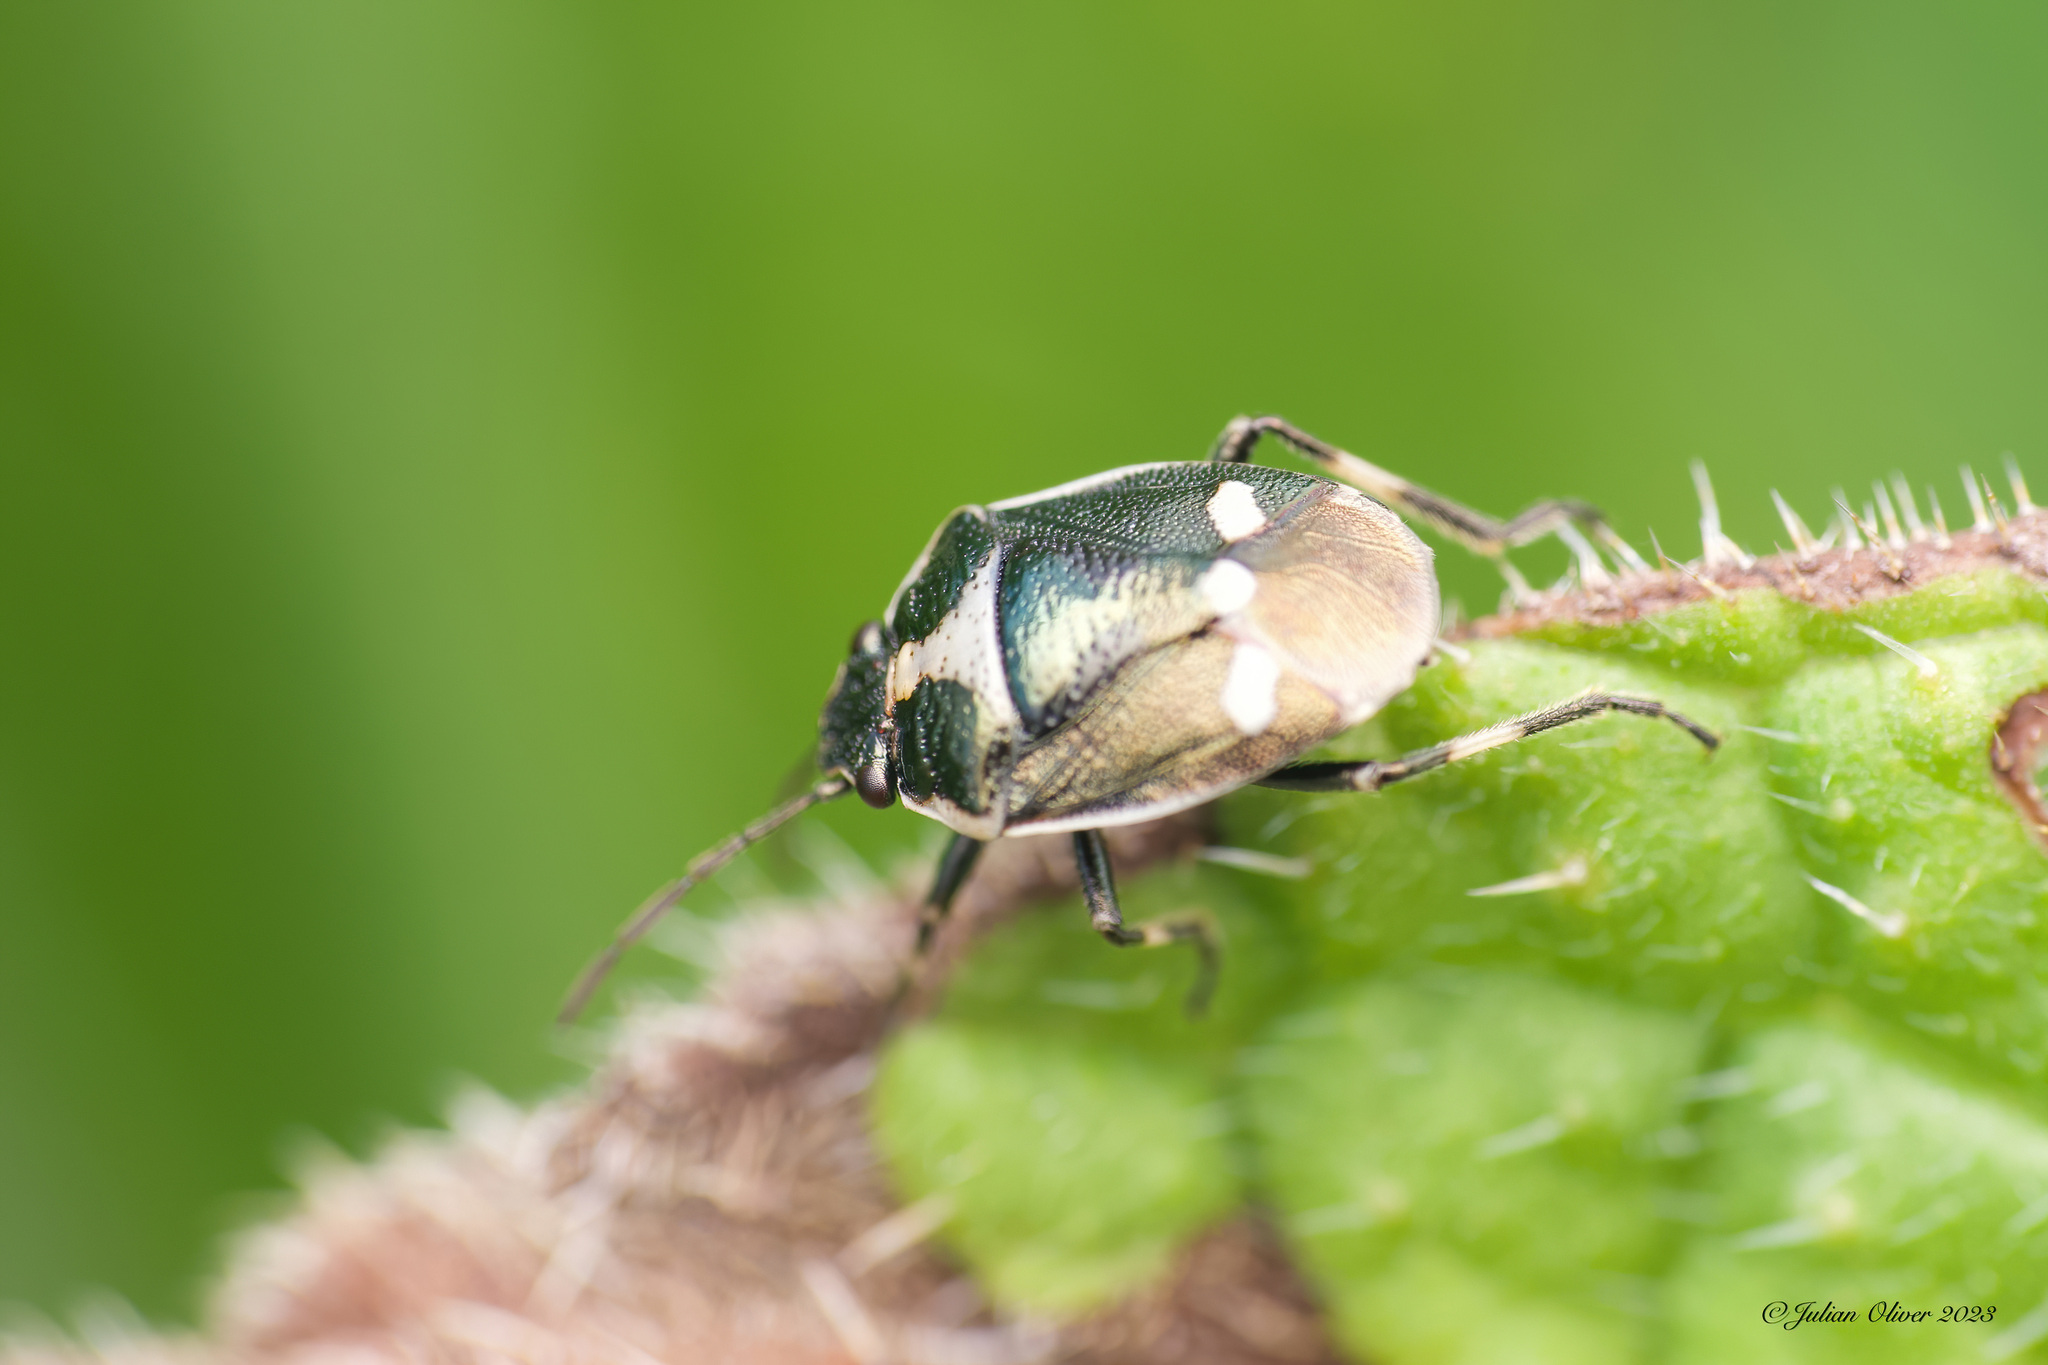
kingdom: Animalia
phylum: Arthropoda
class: Insecta
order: Hemiptera
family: Pentatomidae
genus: Eurydema
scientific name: Eurydema oleracea
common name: Cabbage bug
